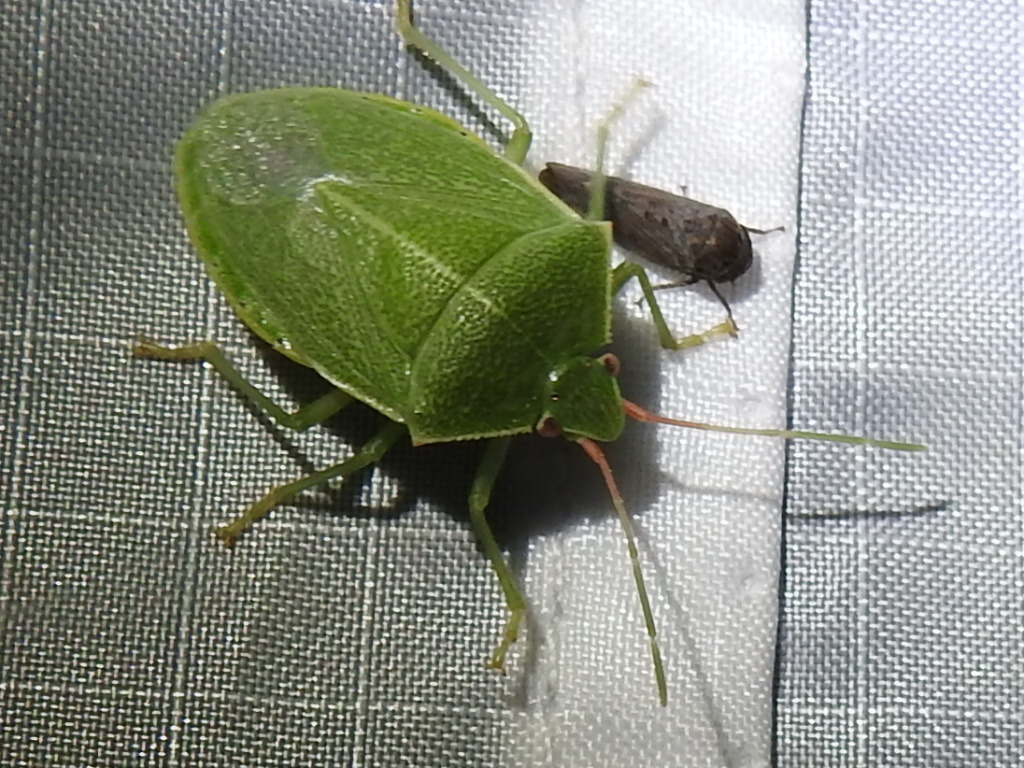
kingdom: Animalia
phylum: Arthropoda
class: Insecta
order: Hemiptera
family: Pentatomidae
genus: Chlorocoris
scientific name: Chlorocoris hebetatus
